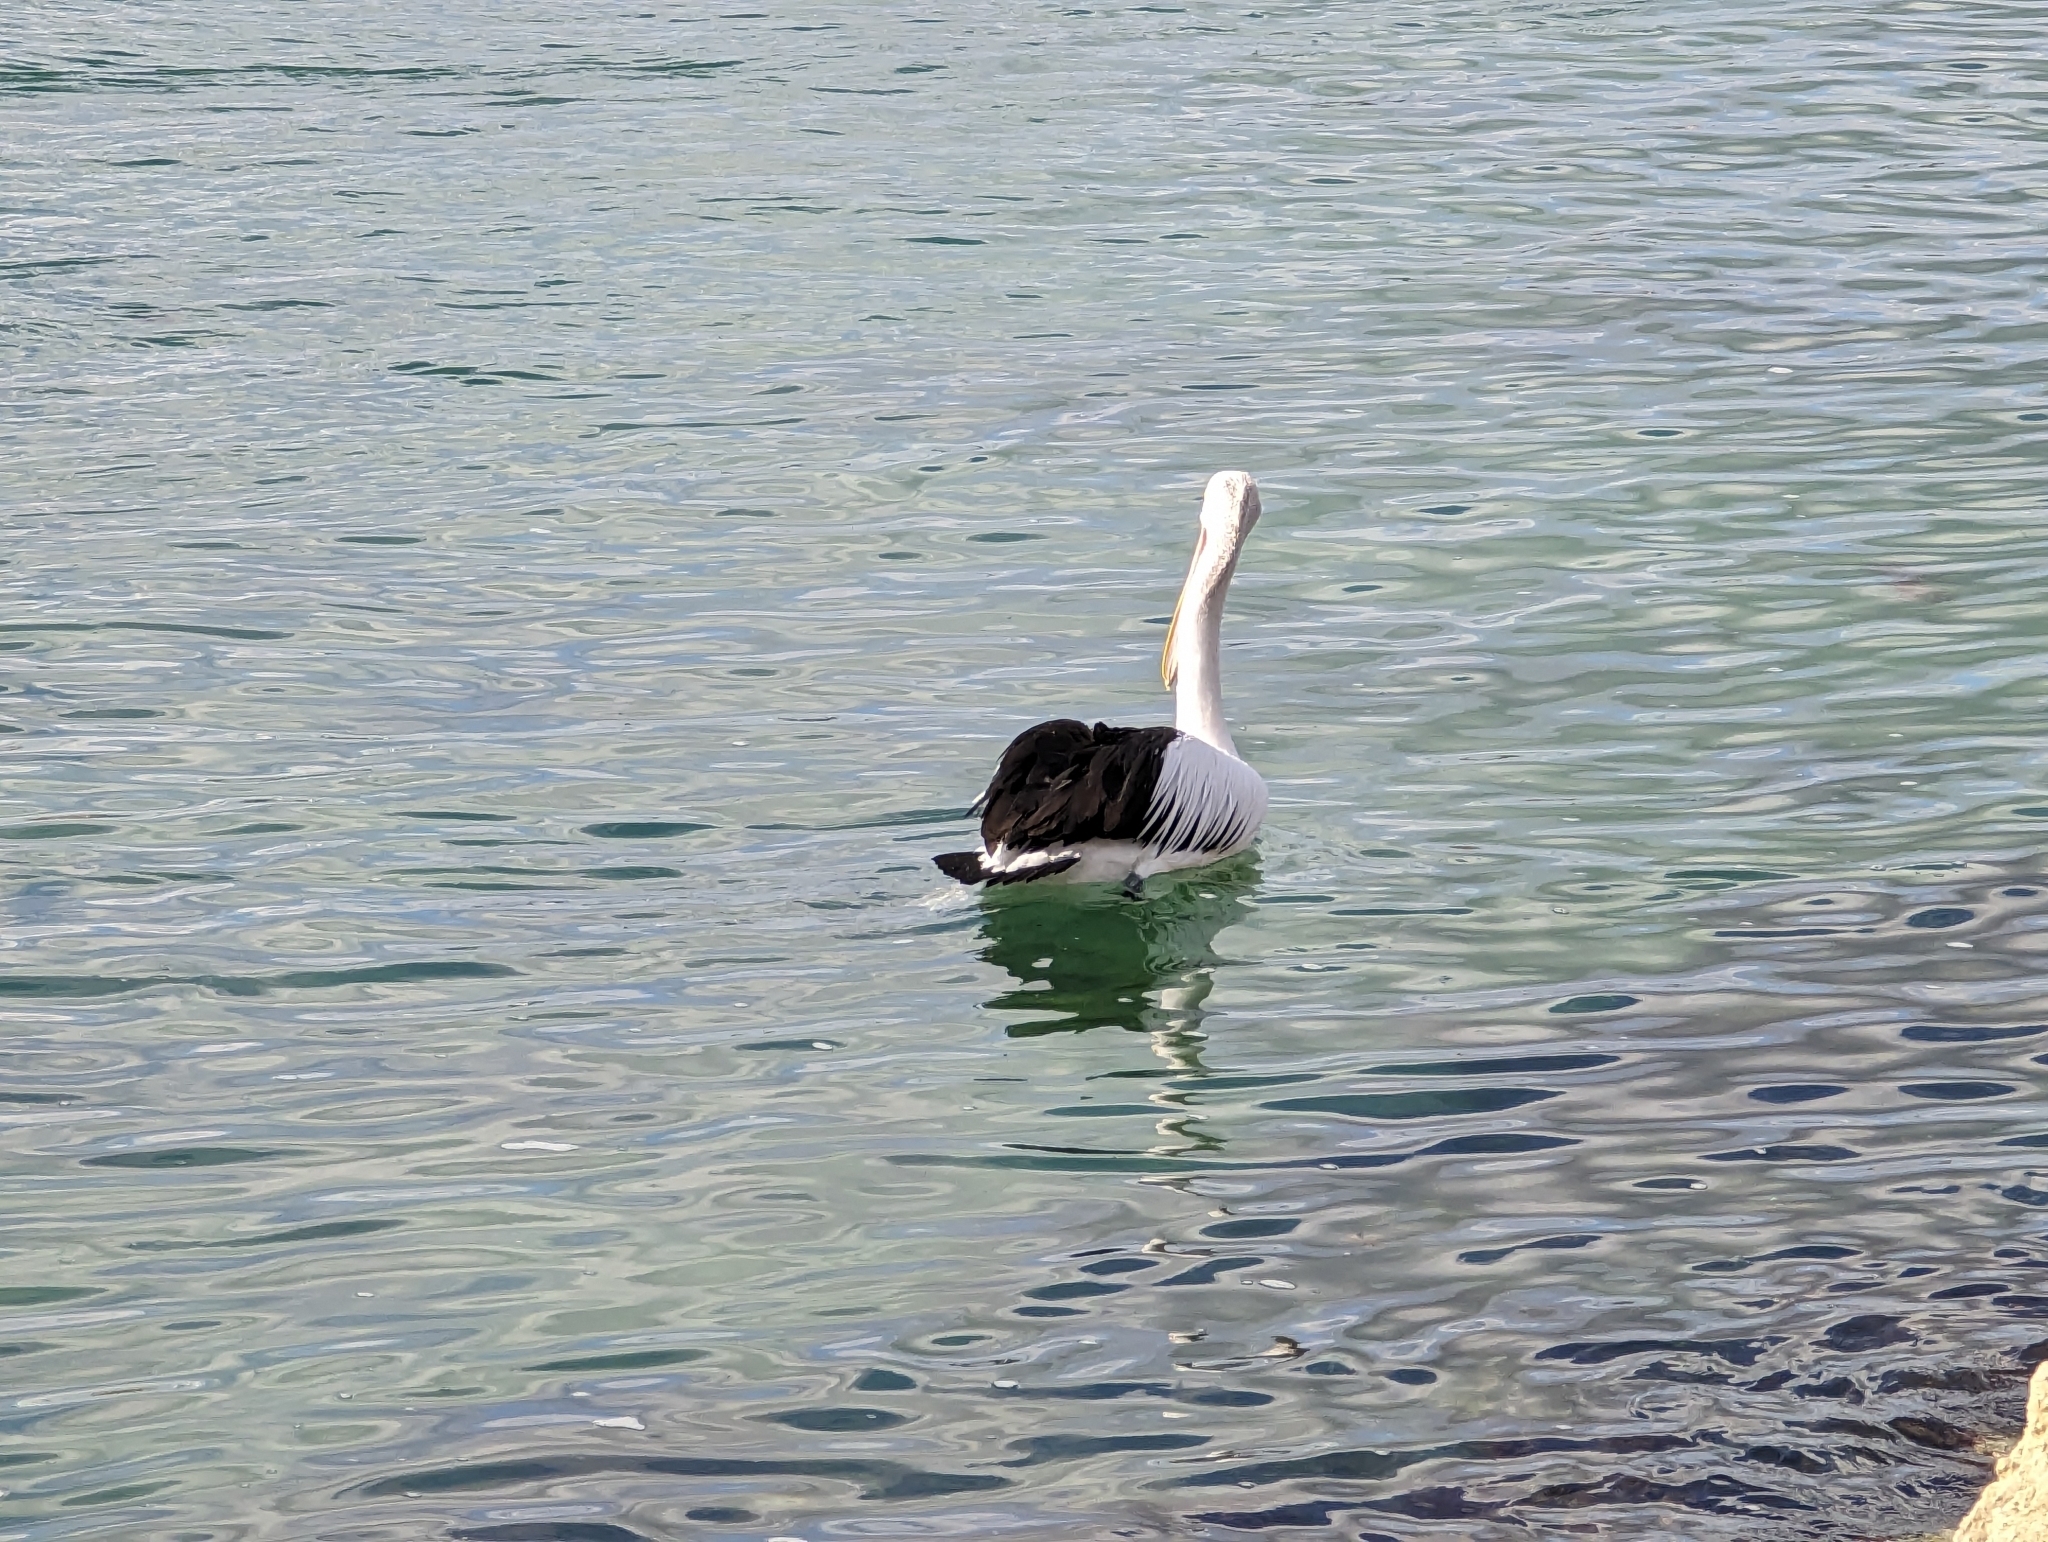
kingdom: Animalia
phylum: Chordata
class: Aves
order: Pelecaniformes
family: Pelecanidae
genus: Pelecanus
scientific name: Pelecanus conspicillatus
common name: Australian pelican
